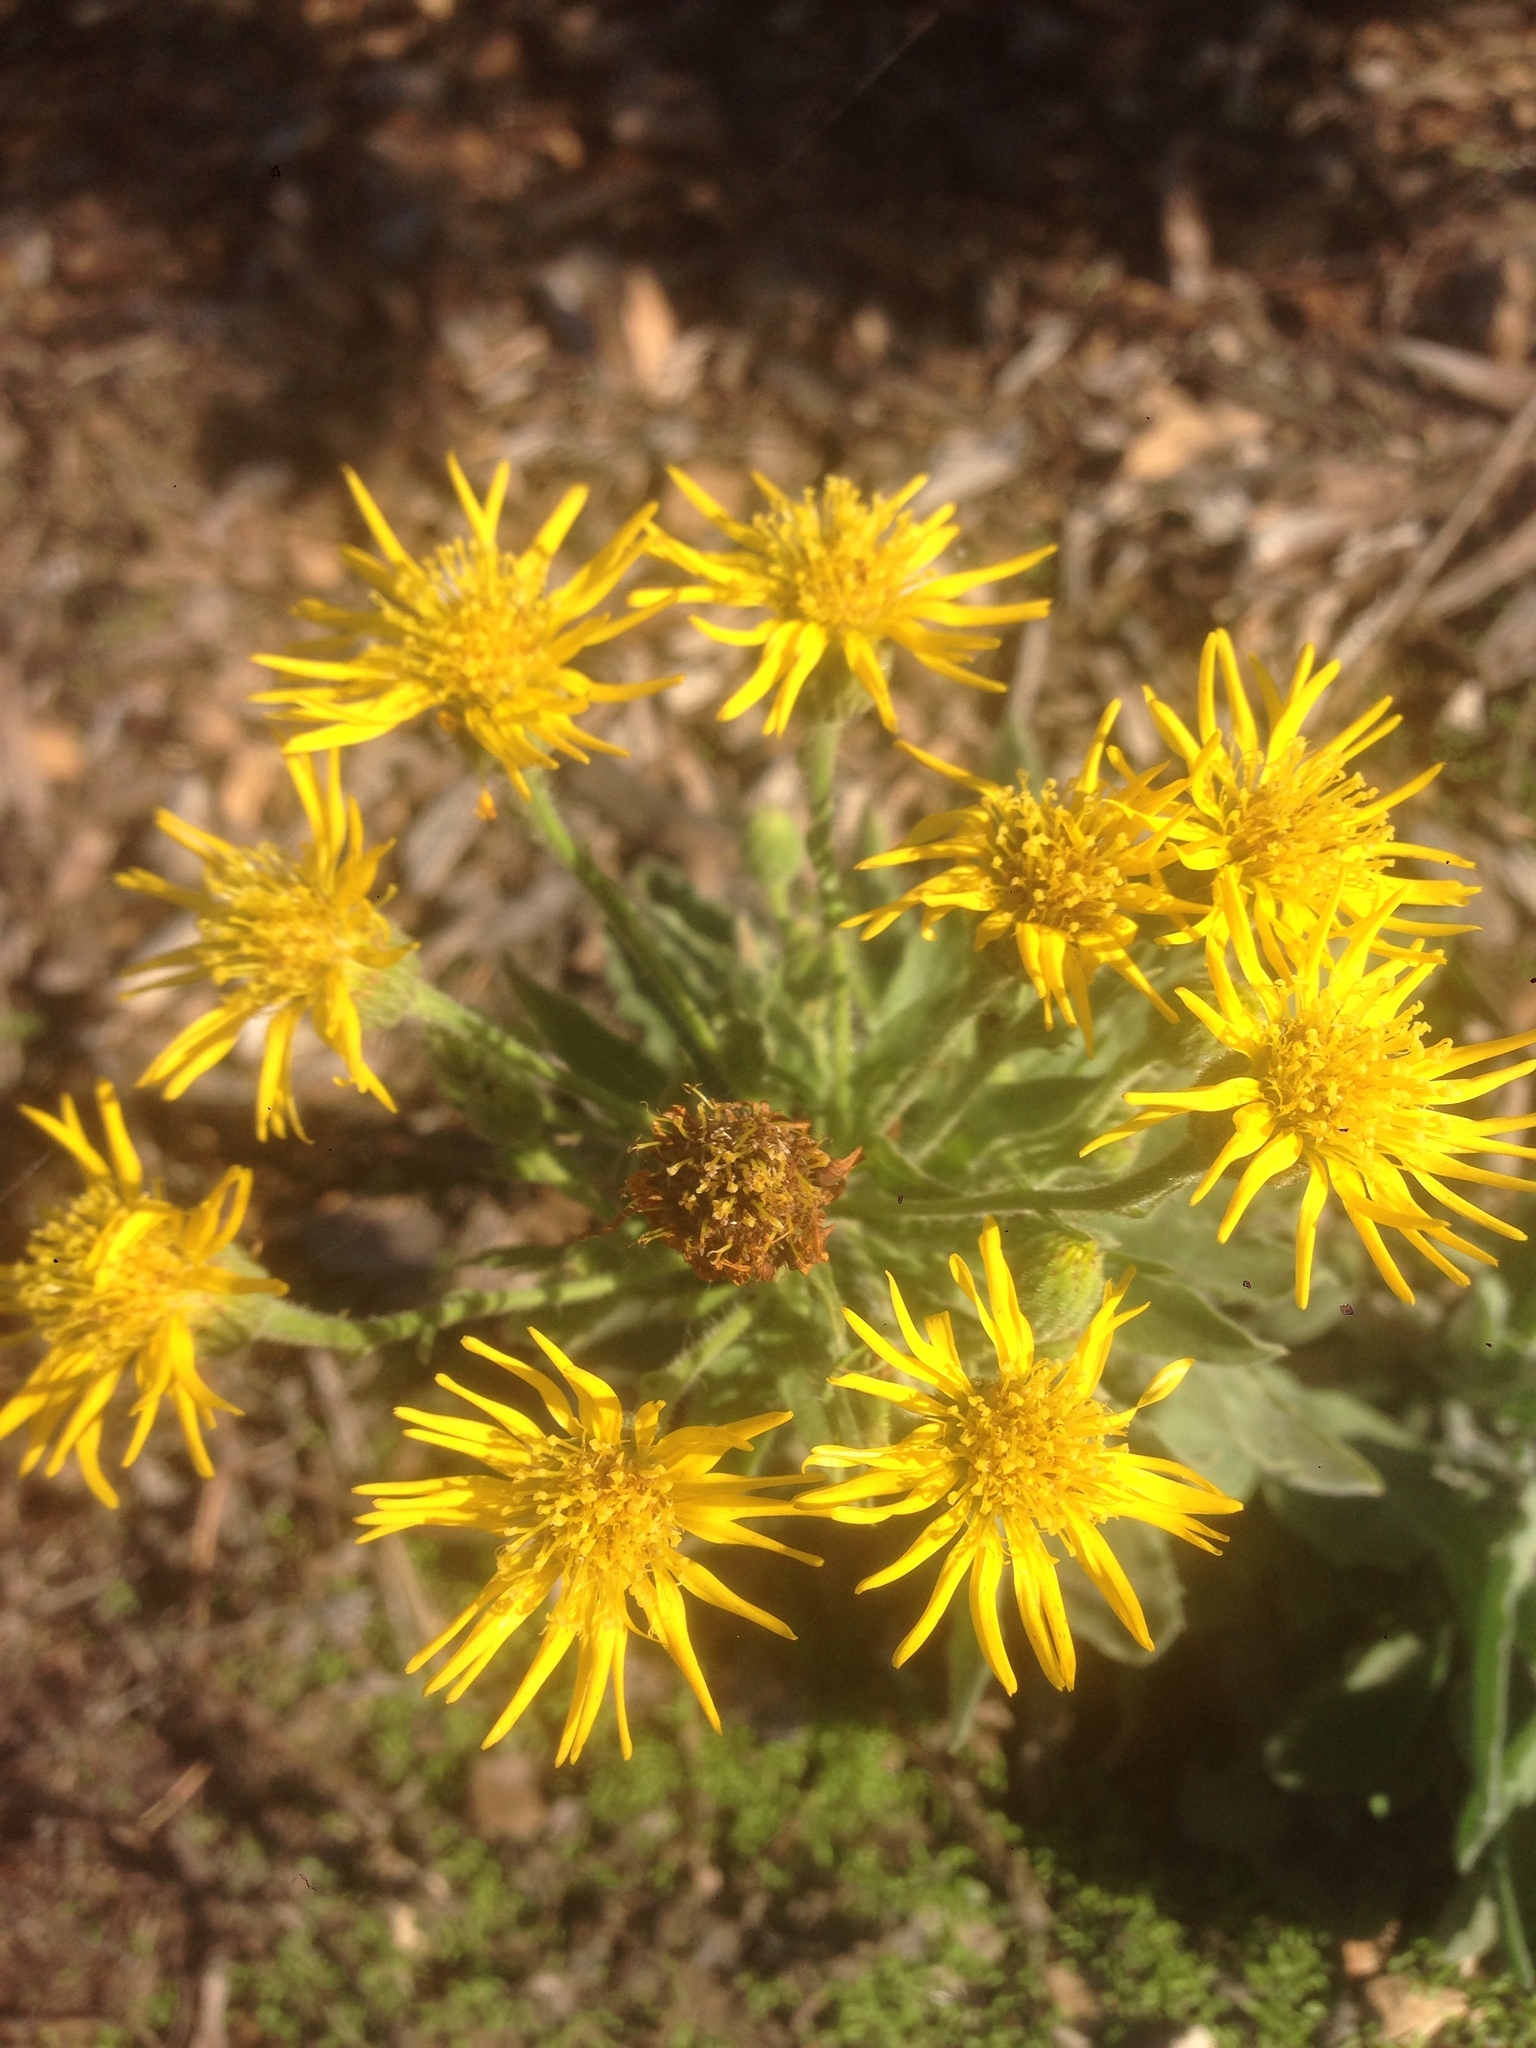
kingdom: Plantae
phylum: Tracheophyta
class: Magnoliopsida
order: Asterales
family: Asteraceae
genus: Heterotheca
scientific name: Heterotheca grandiflora
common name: Telegraphweed
